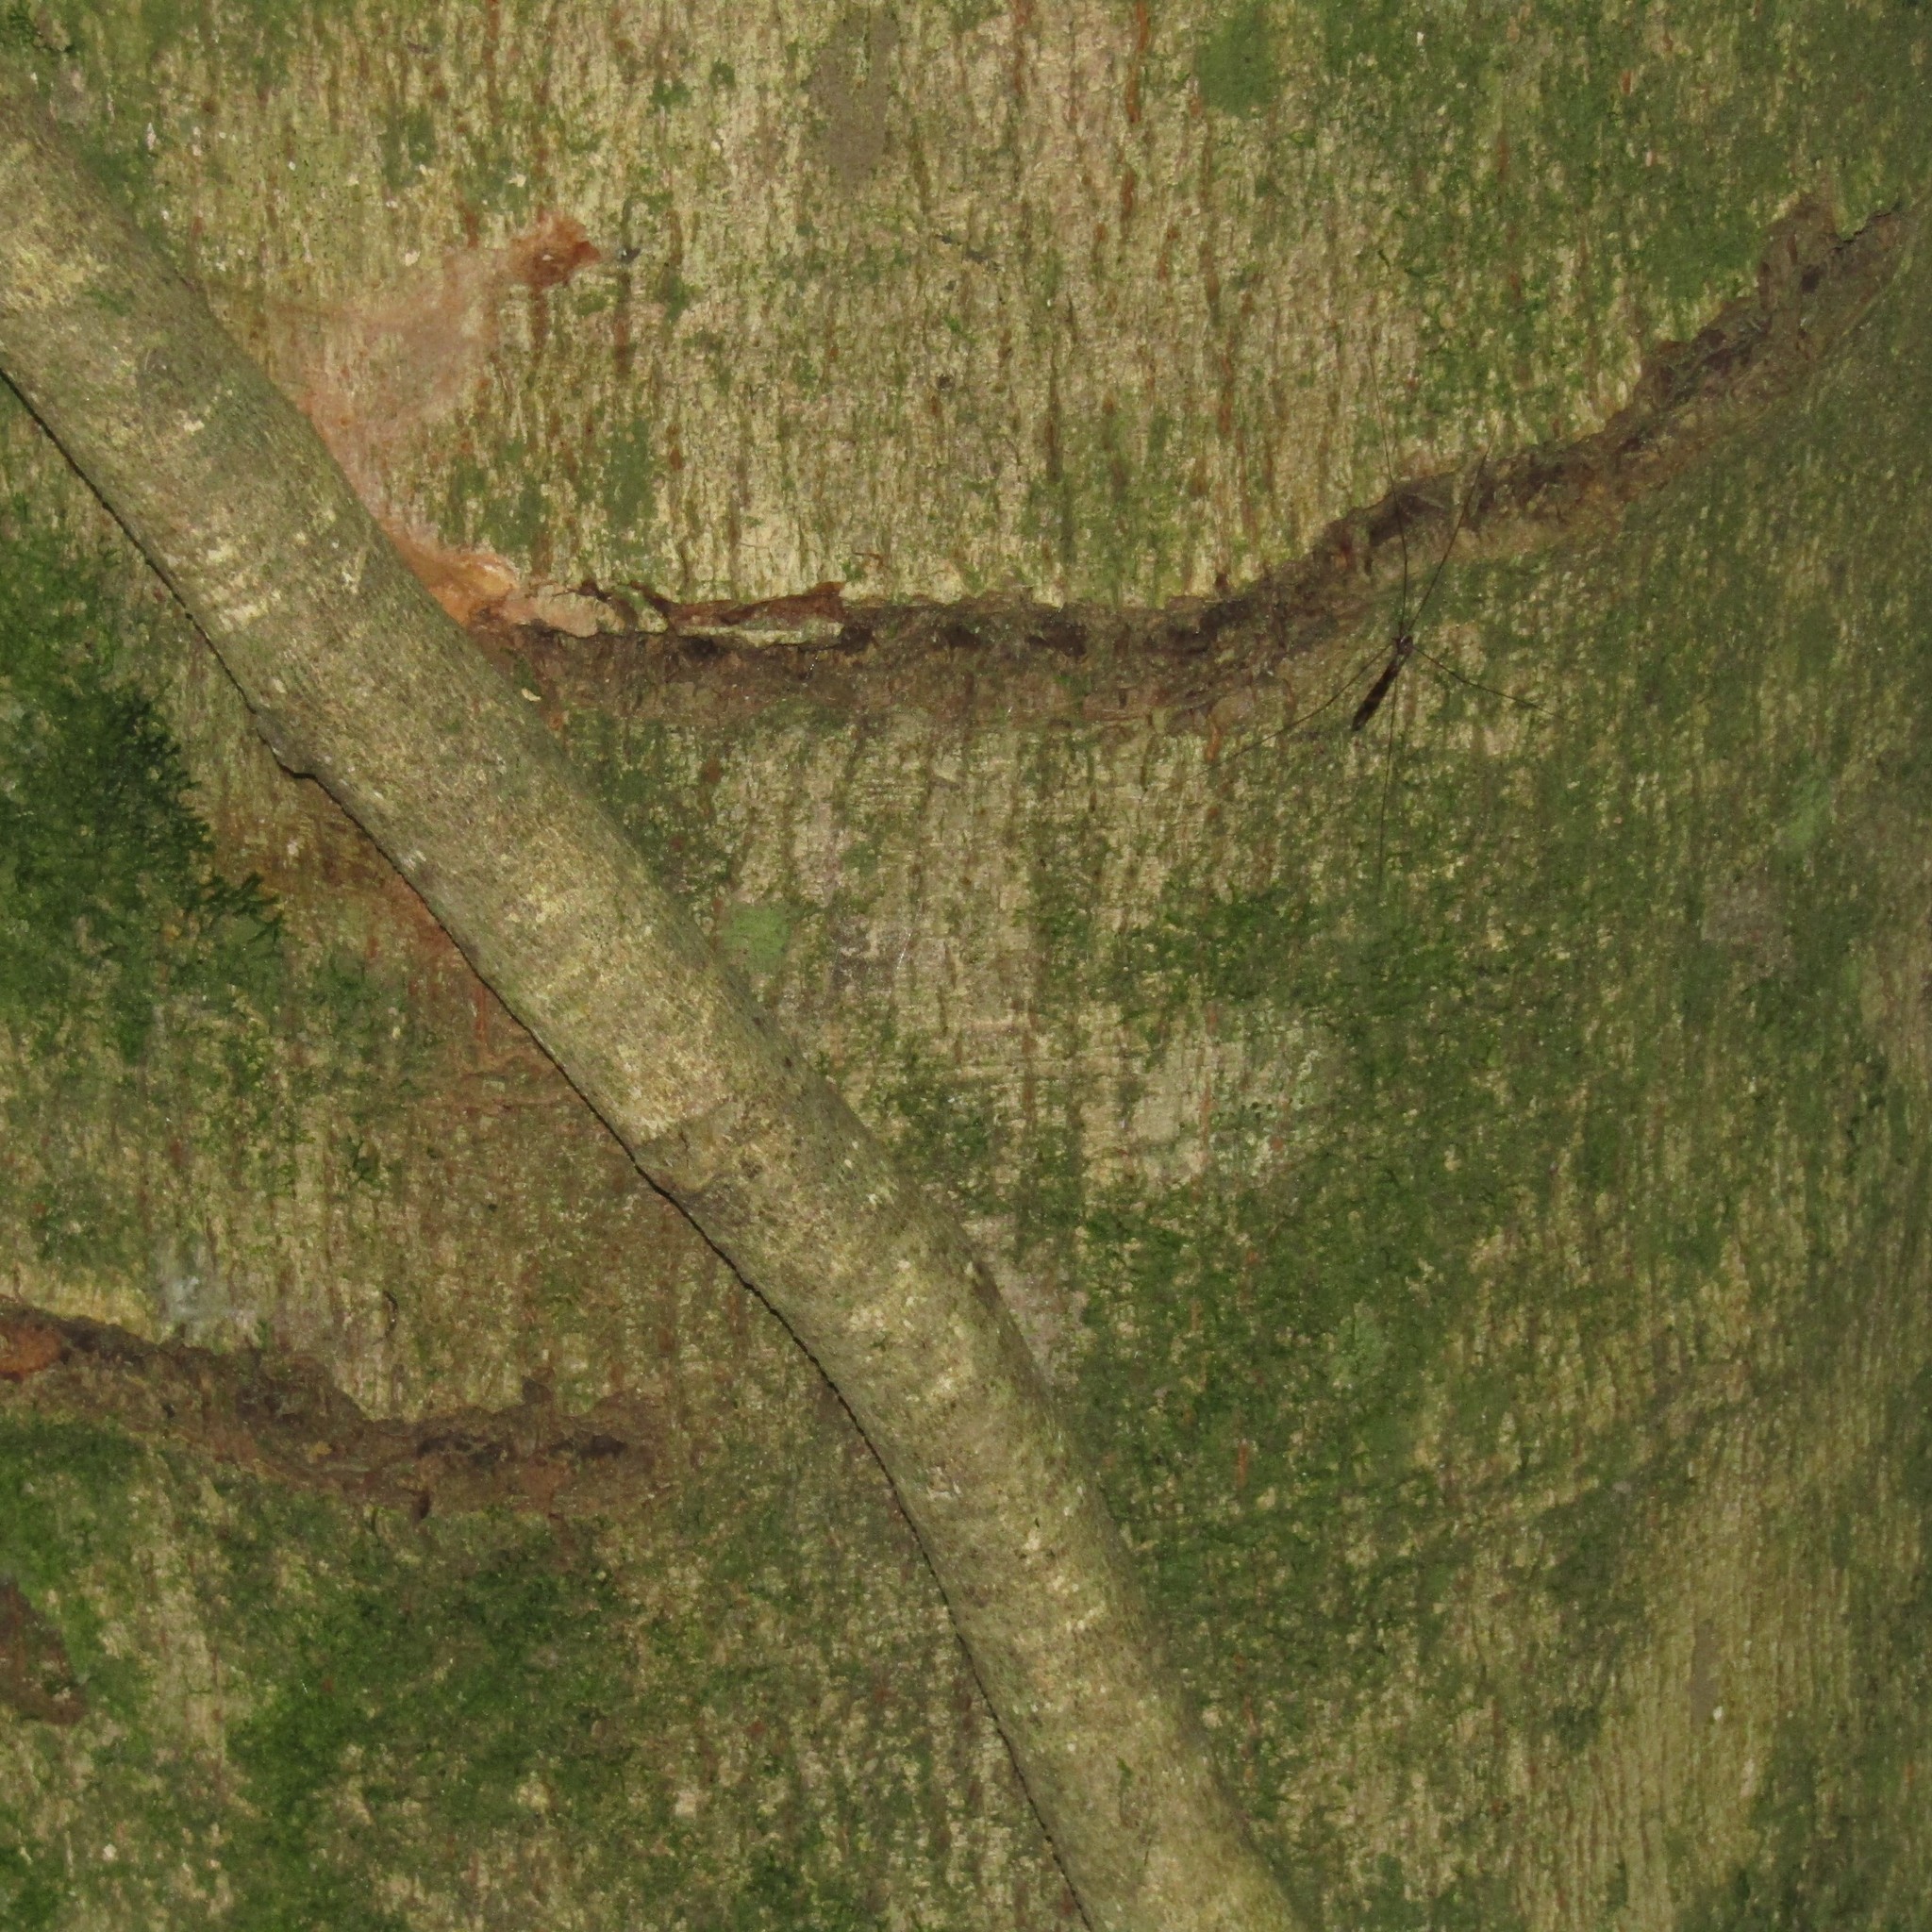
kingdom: Animalia
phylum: Chordata
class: Aves
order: Psittaciformes
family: Psittacidae
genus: Nestor
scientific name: Nestor meridionalis
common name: New zealand kaka
